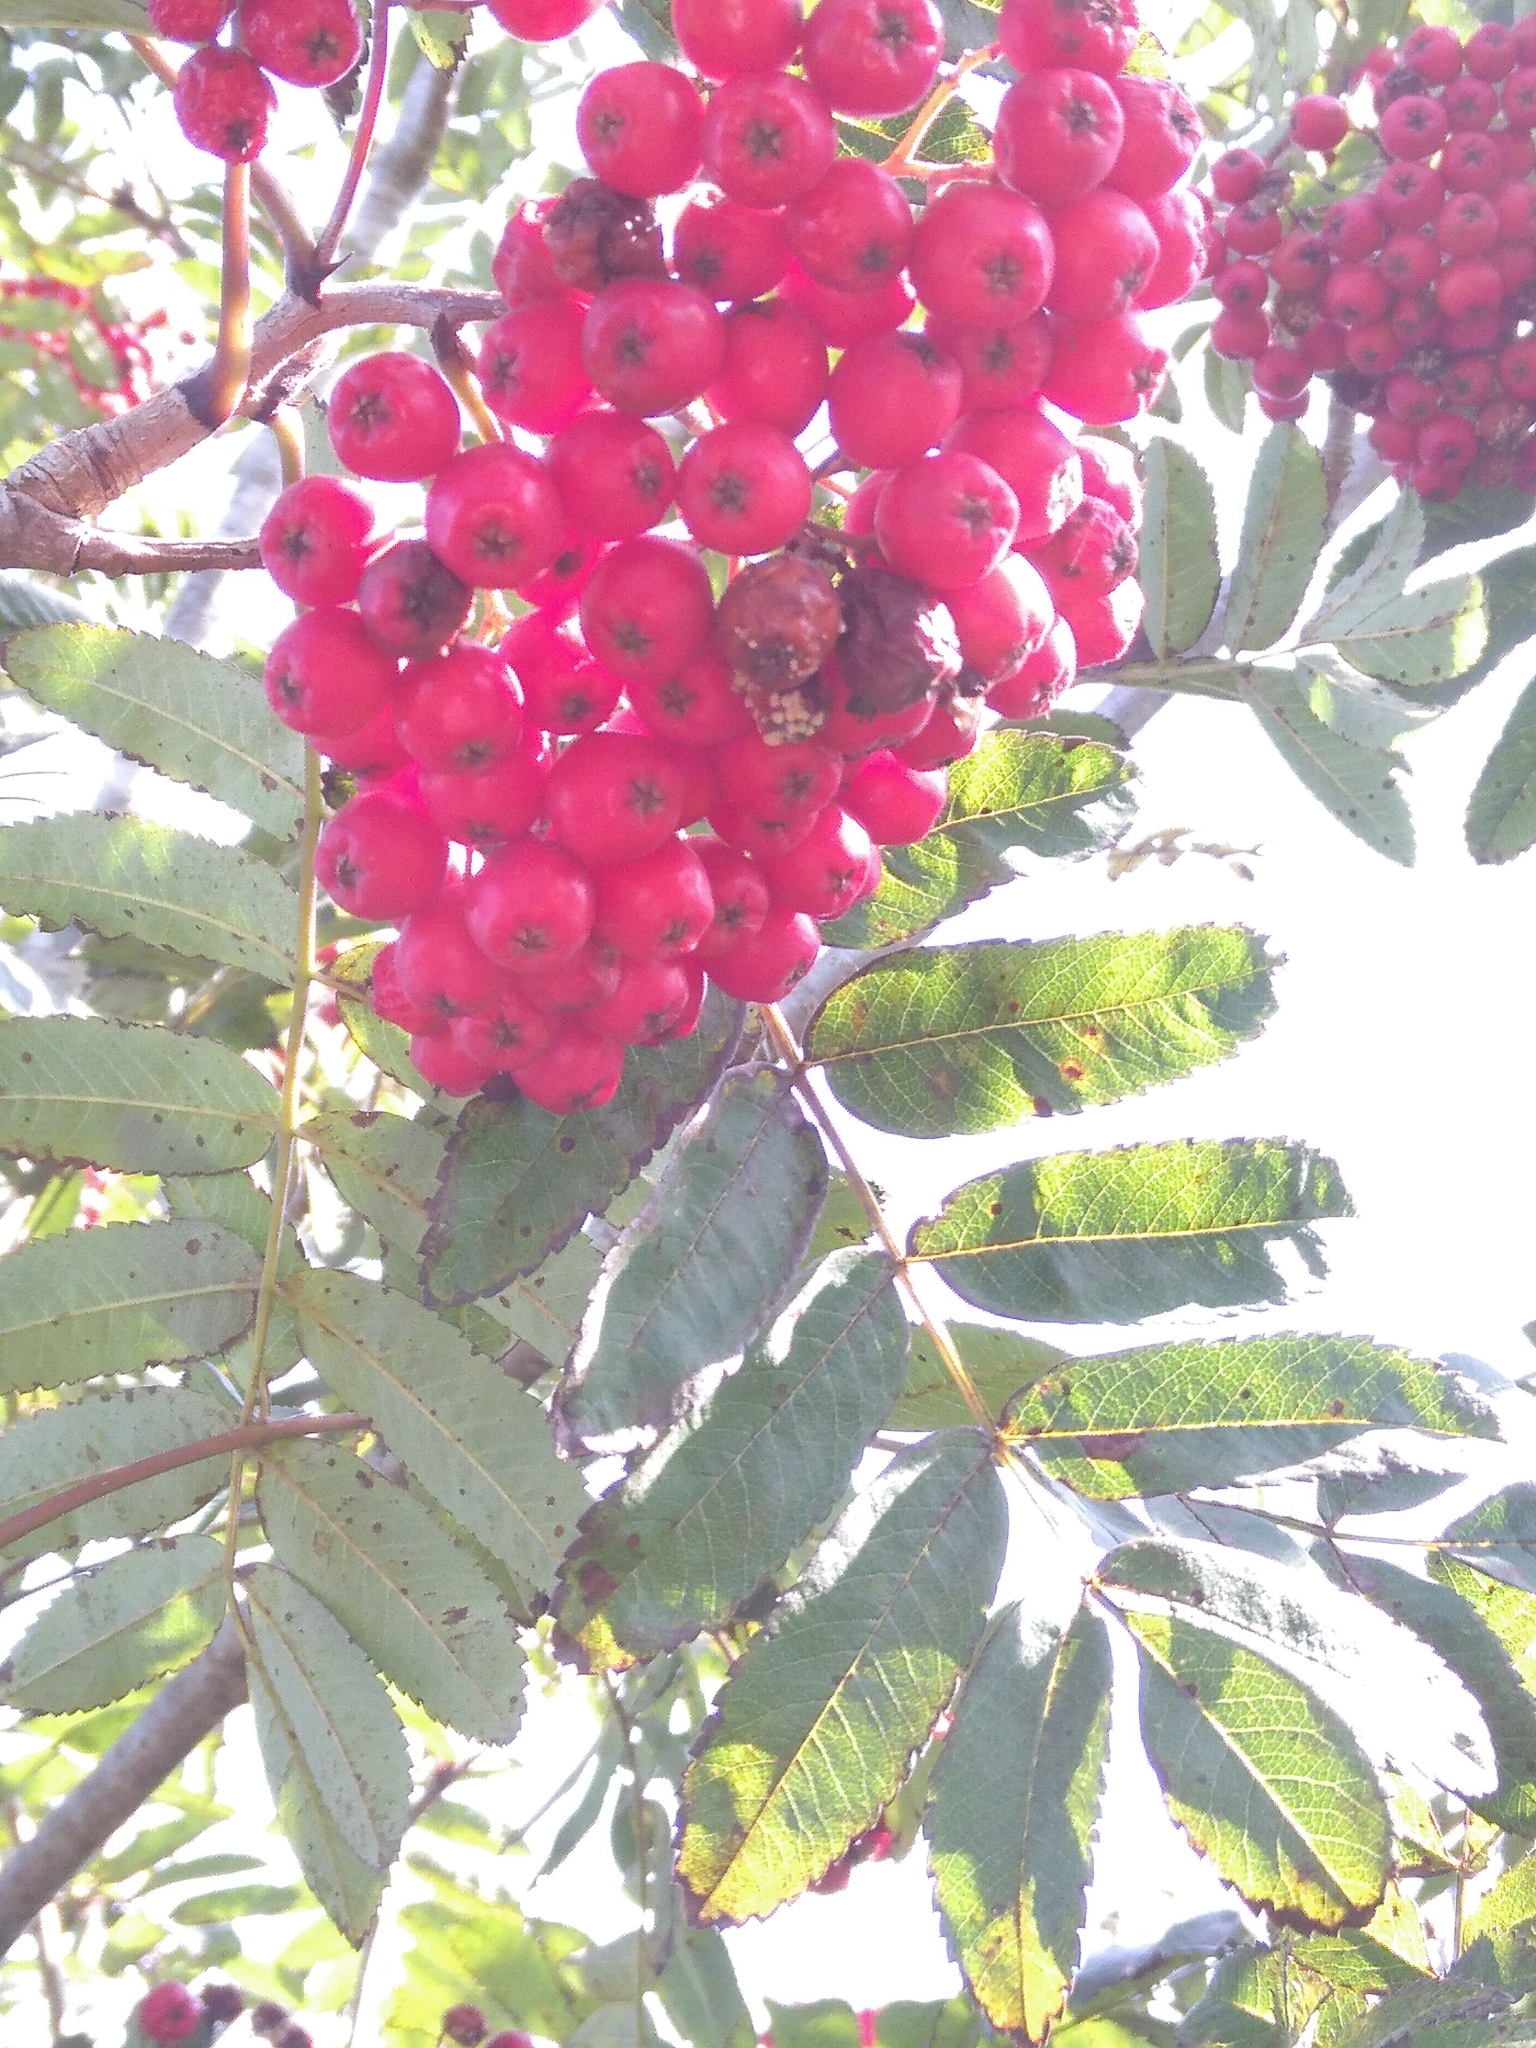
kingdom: Plantae
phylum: Tracheophyta
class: Magnoliopsida
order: Rosales
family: Rosaceae
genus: Sorbus
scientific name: Sorbus aucuparia
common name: Rowan
